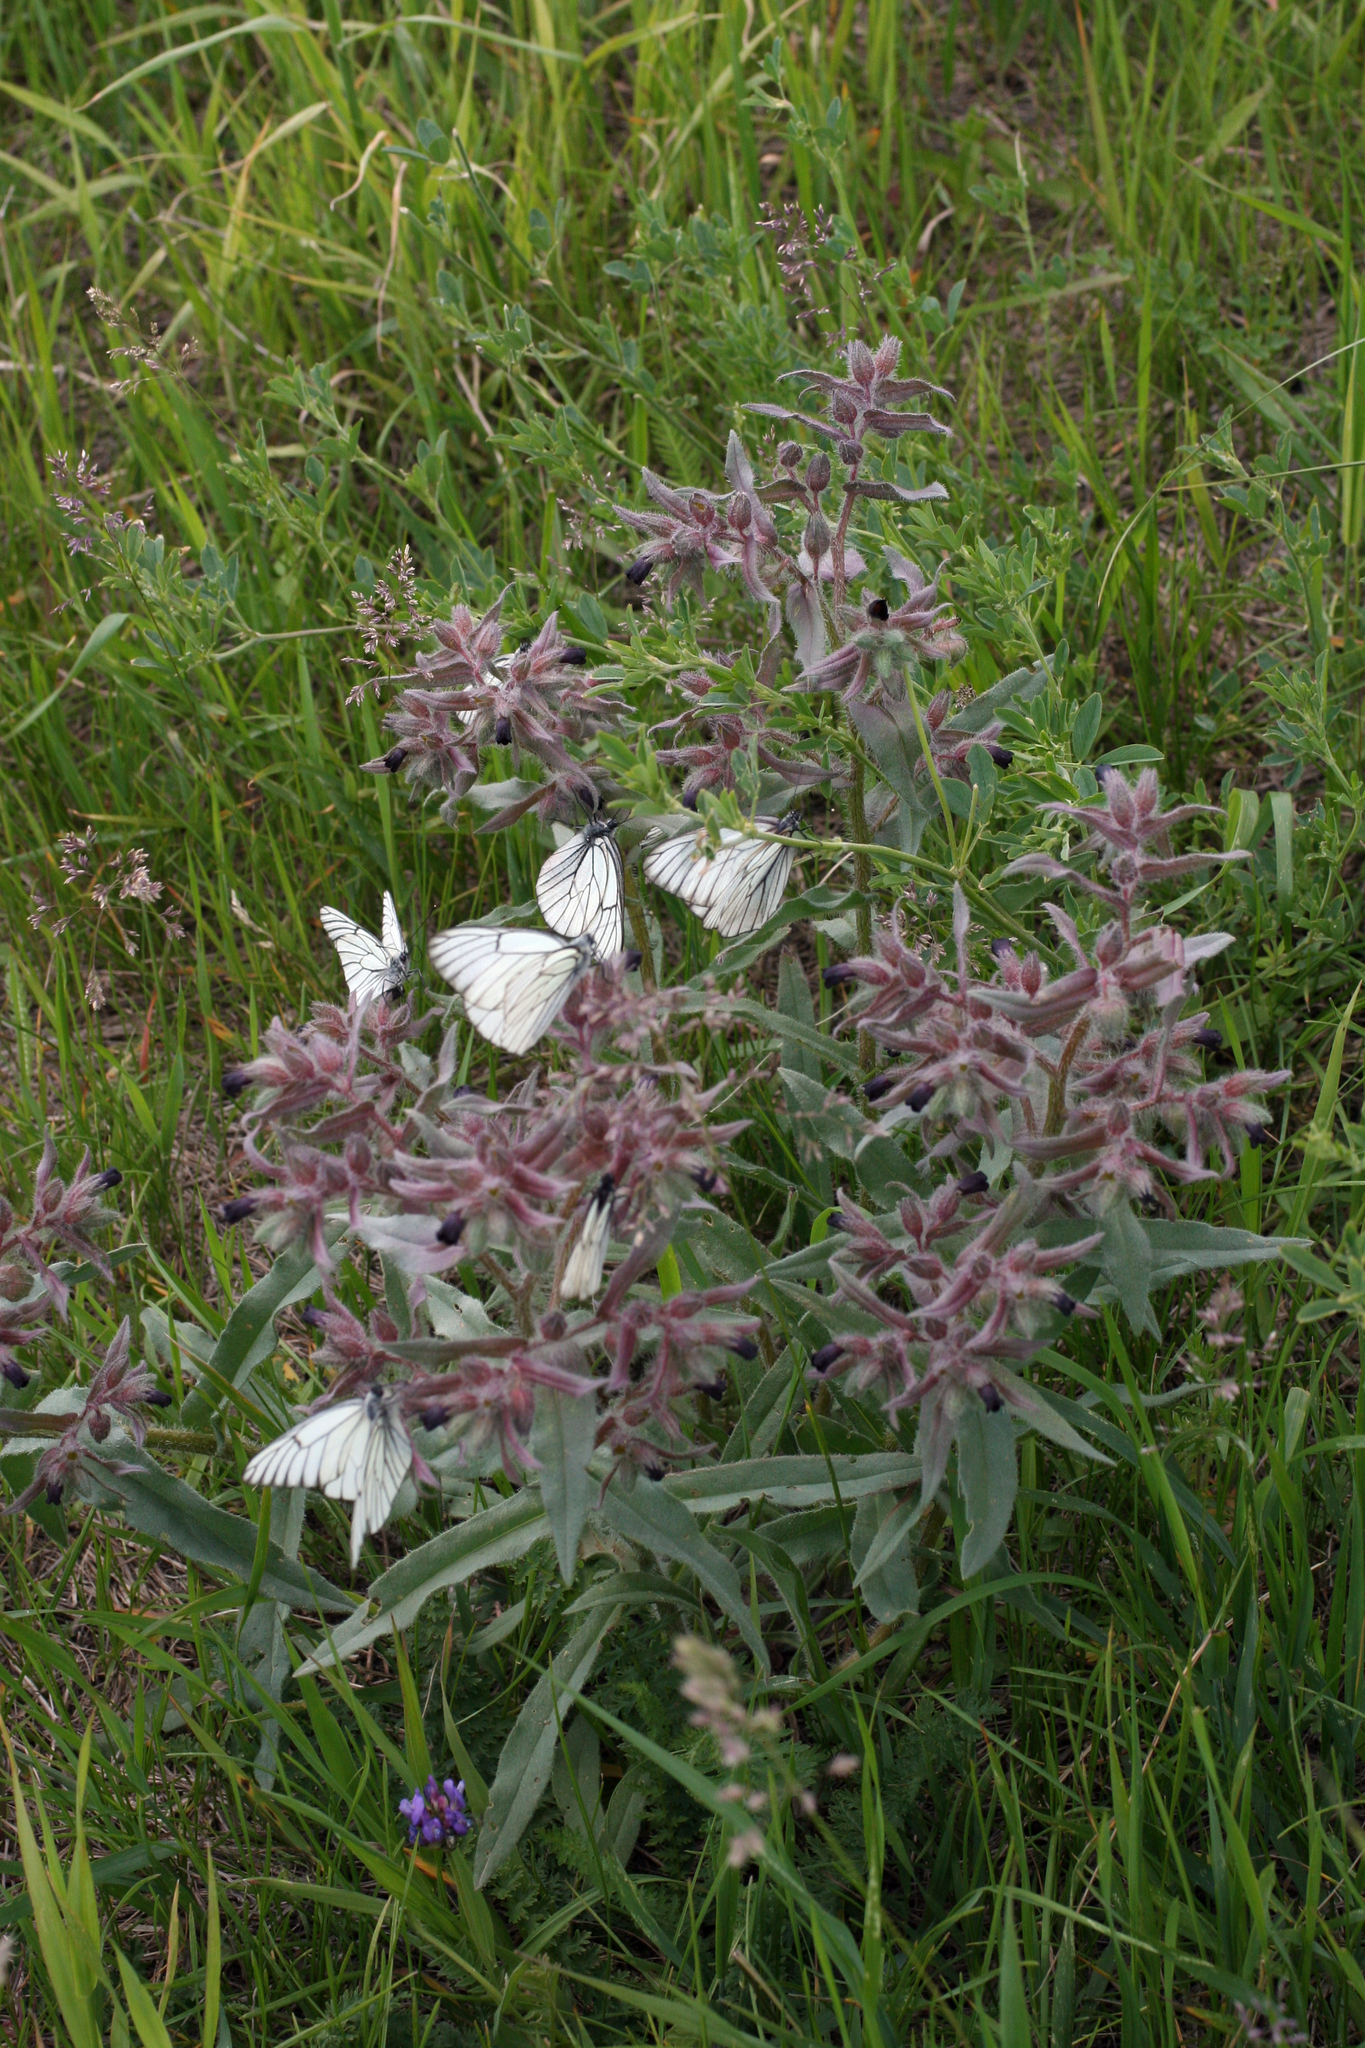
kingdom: Plantae
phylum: Tracheophyta
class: Magnoliopsida
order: Boraginales
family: Boraginaceae
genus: Nonea
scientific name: Nonea pulla
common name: Brown nonea
